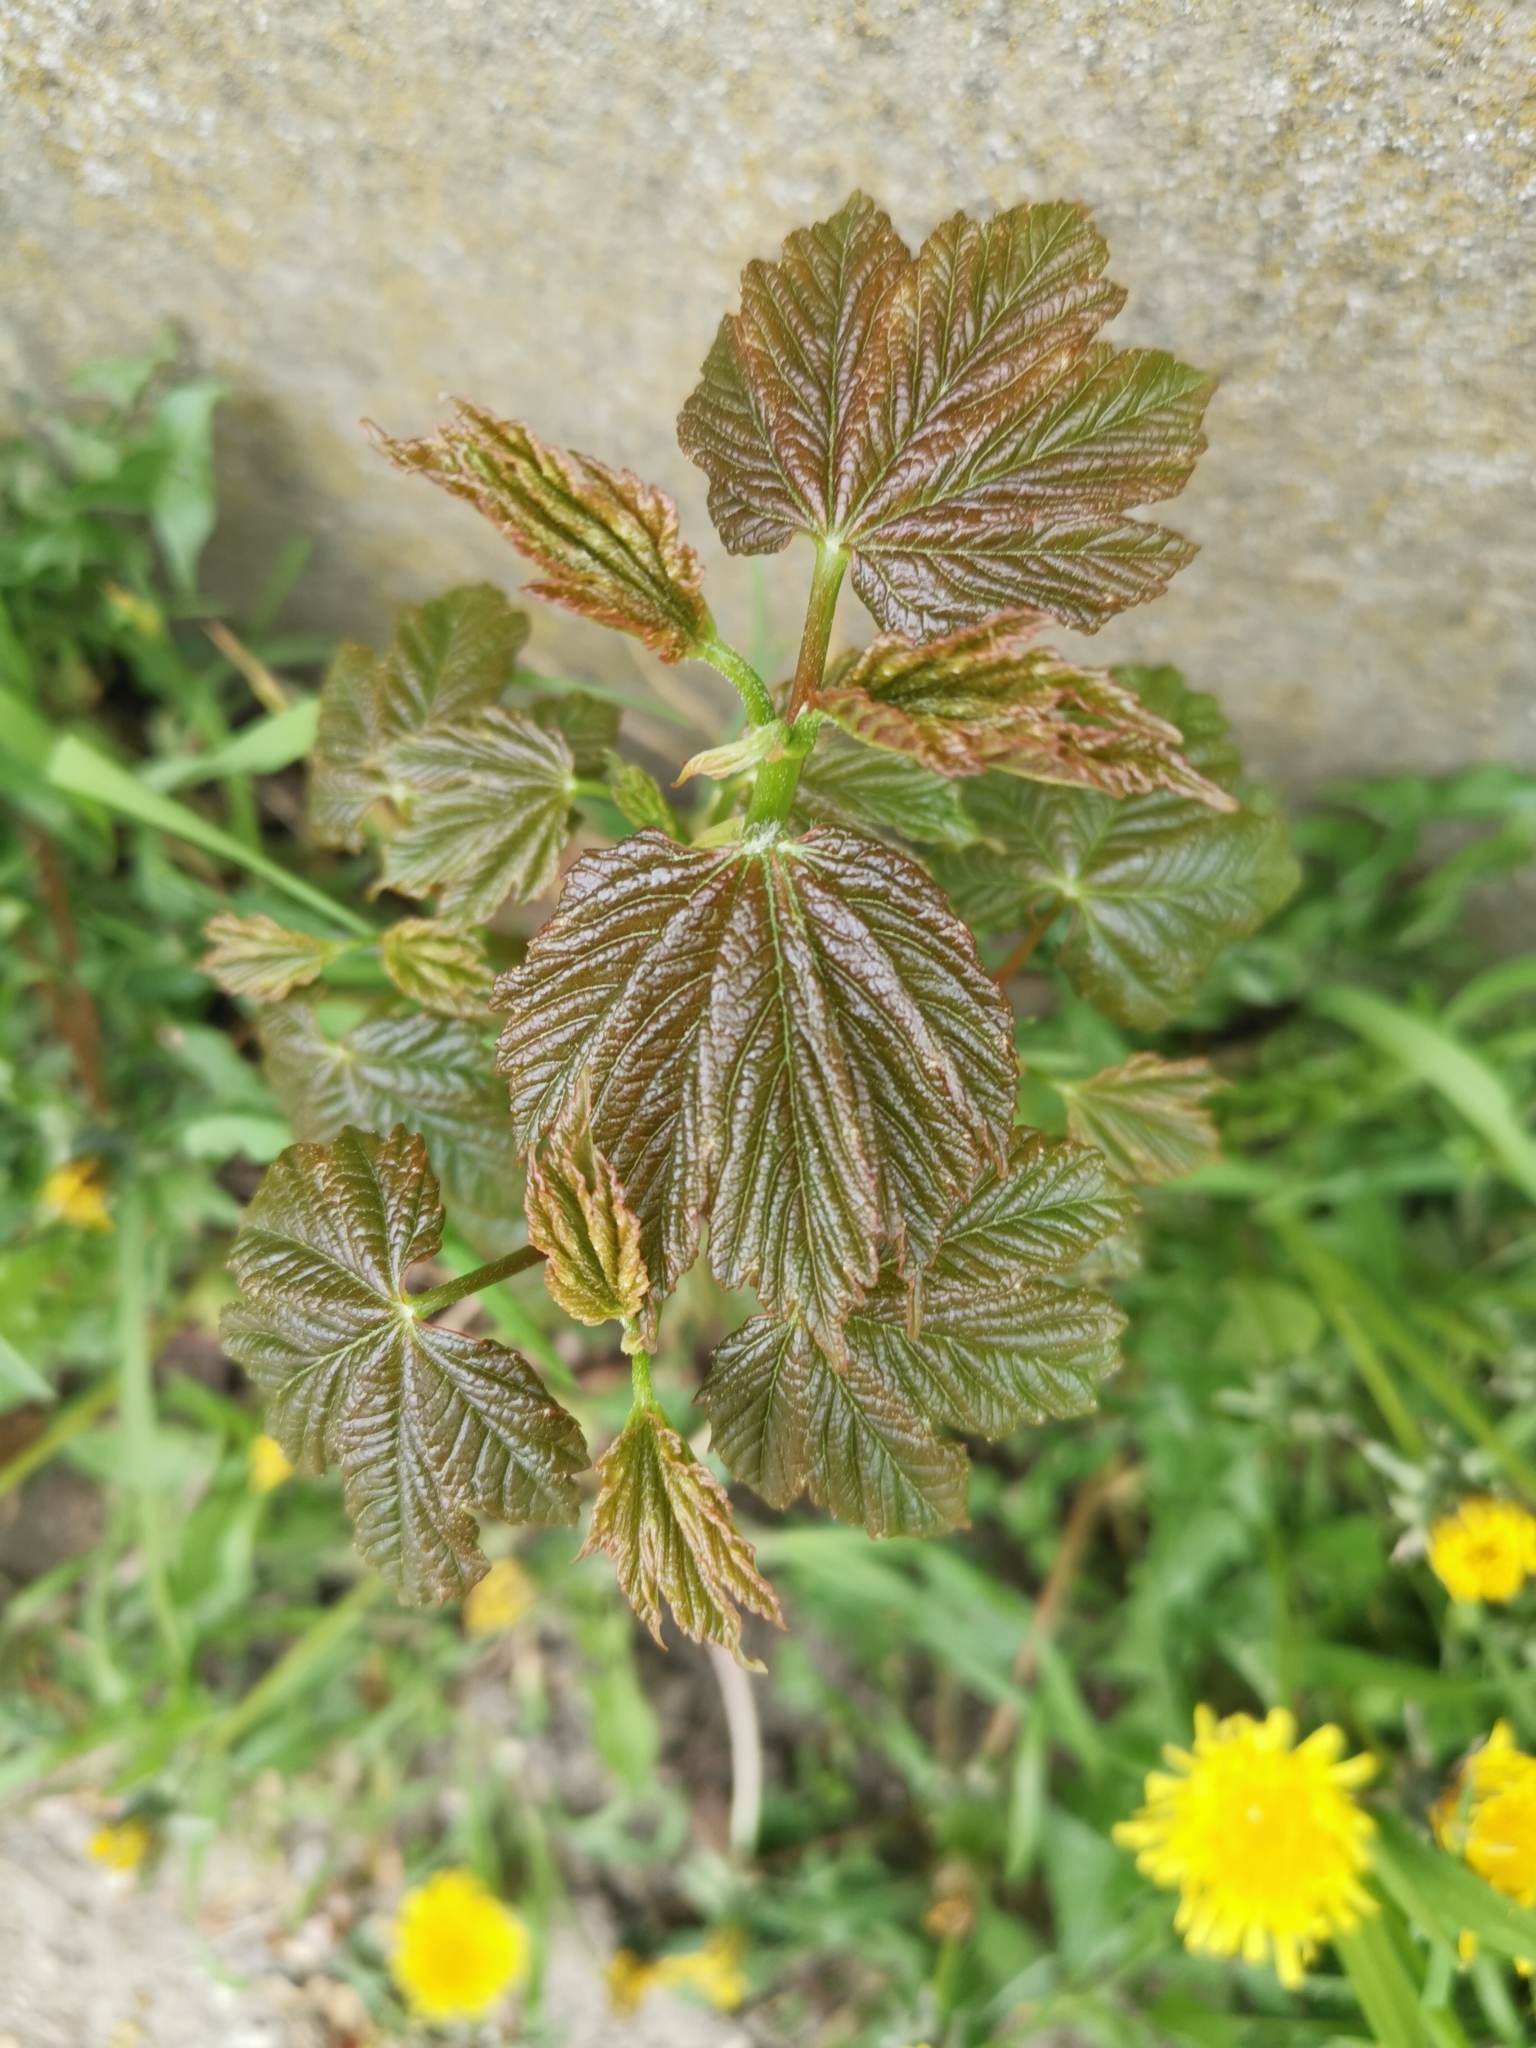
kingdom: Plantae
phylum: Tracheophyta
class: Magnoliopsida
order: Sapindales
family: Sapindaceae
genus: Acer
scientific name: Acer pseudoplatanus
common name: Sycamore
